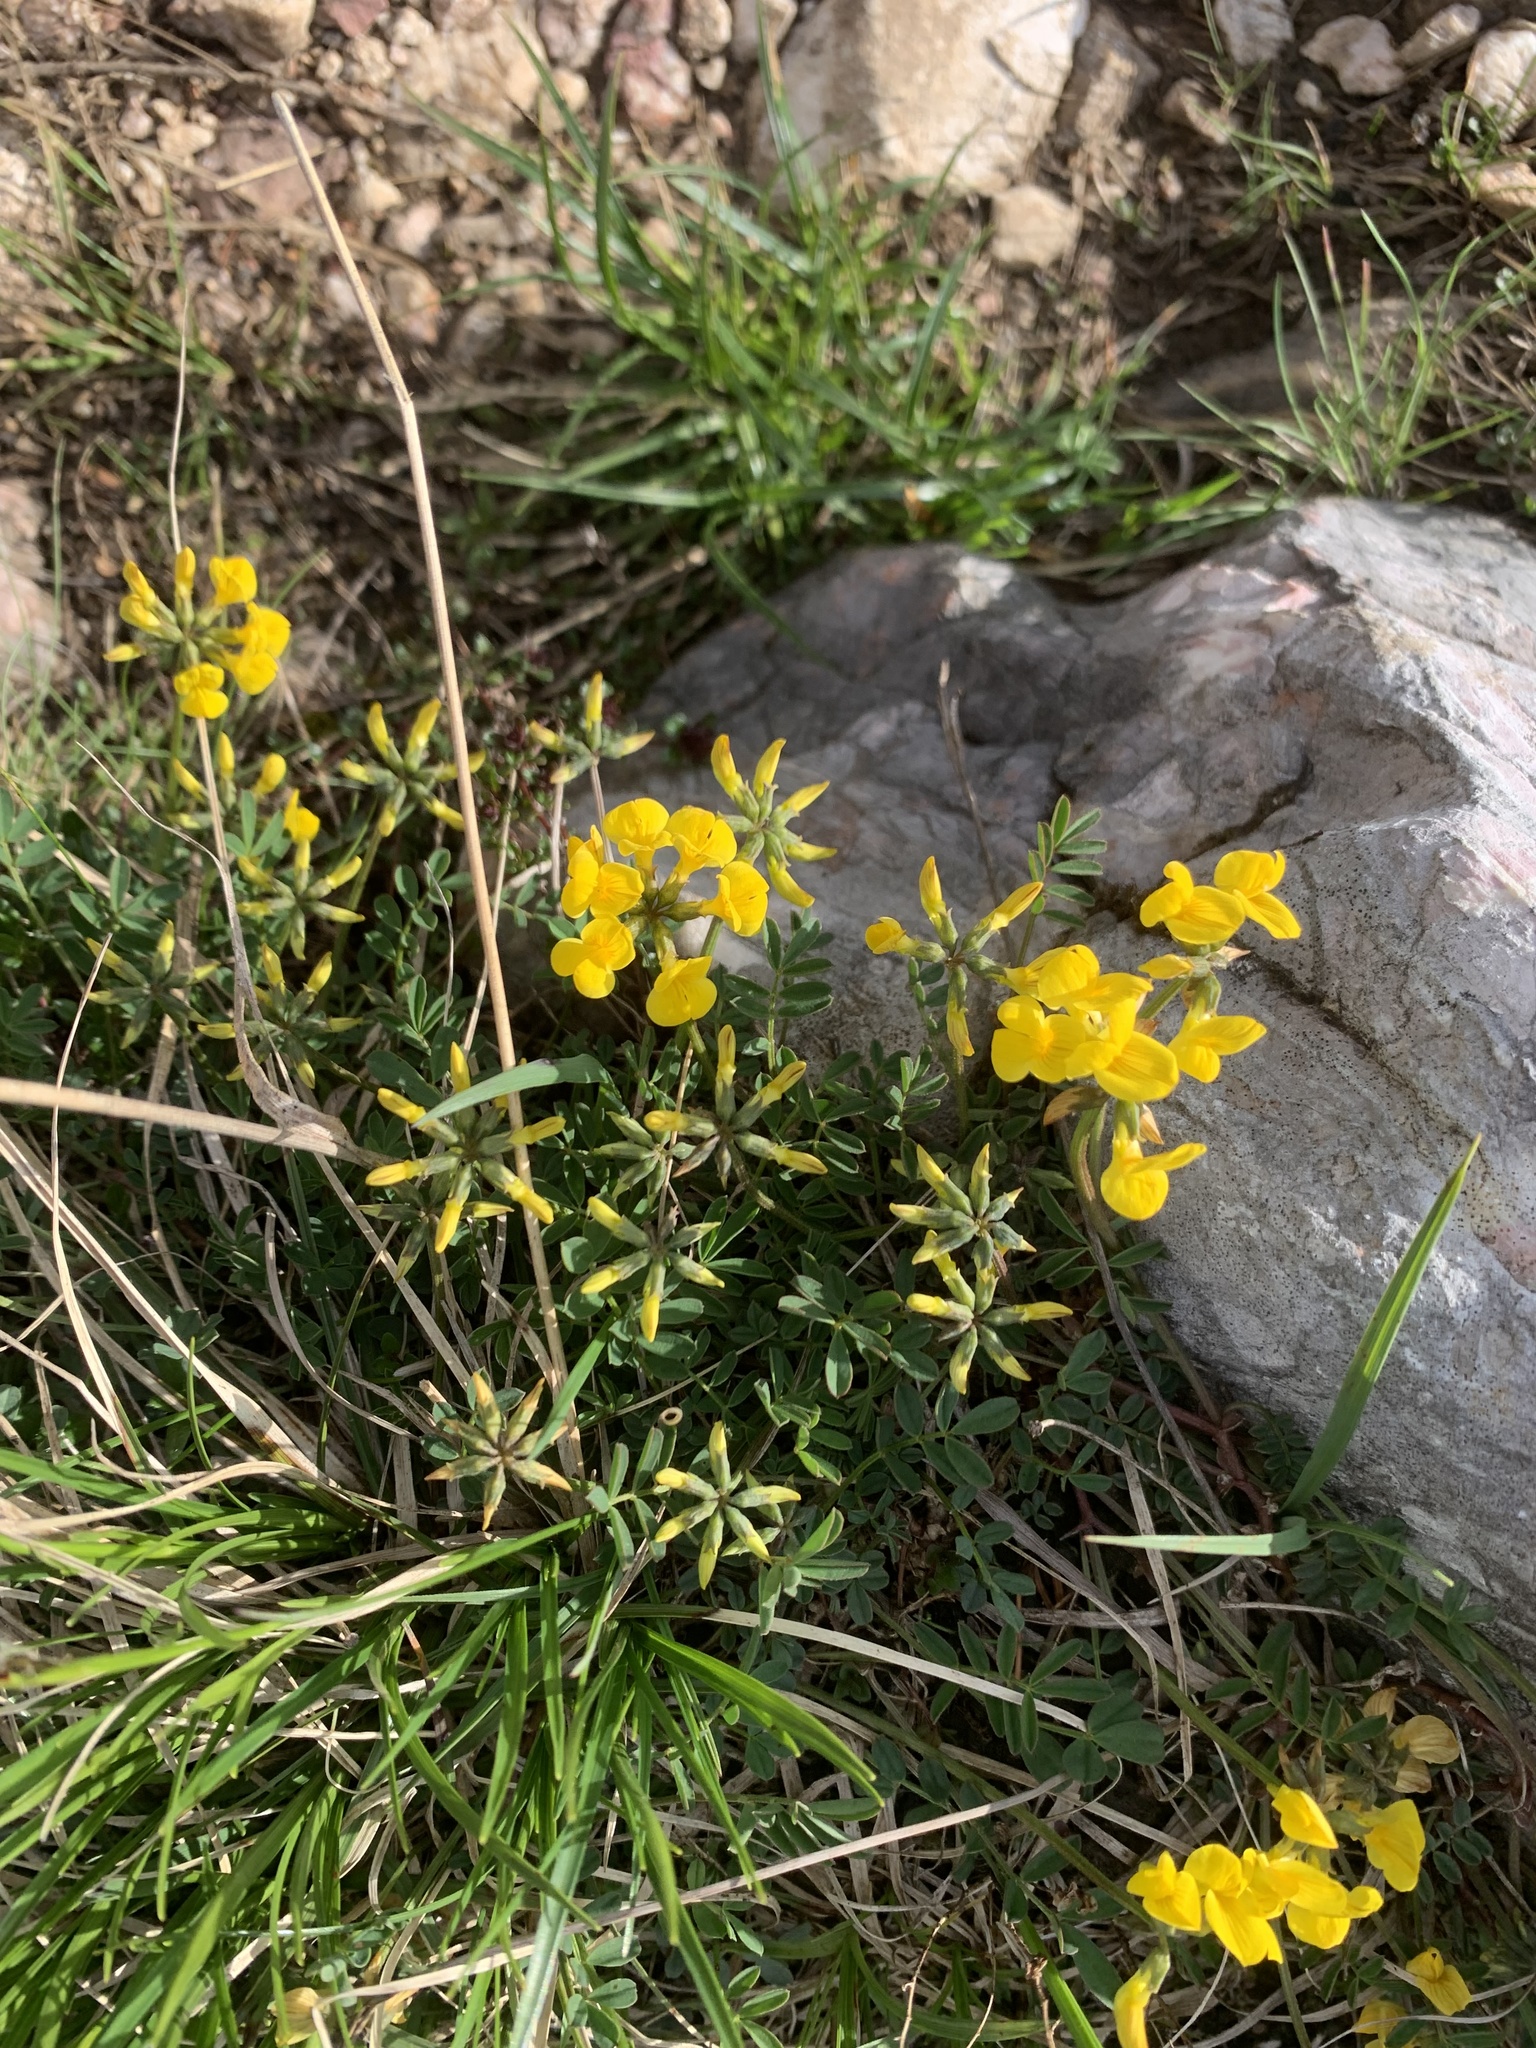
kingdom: Plantae
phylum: Tracheophyta
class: Magnoliopsida
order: Fabales
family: Fabaceae
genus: Hippocrepis
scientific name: Hippocrepis comosa
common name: Horseshoe vetch
